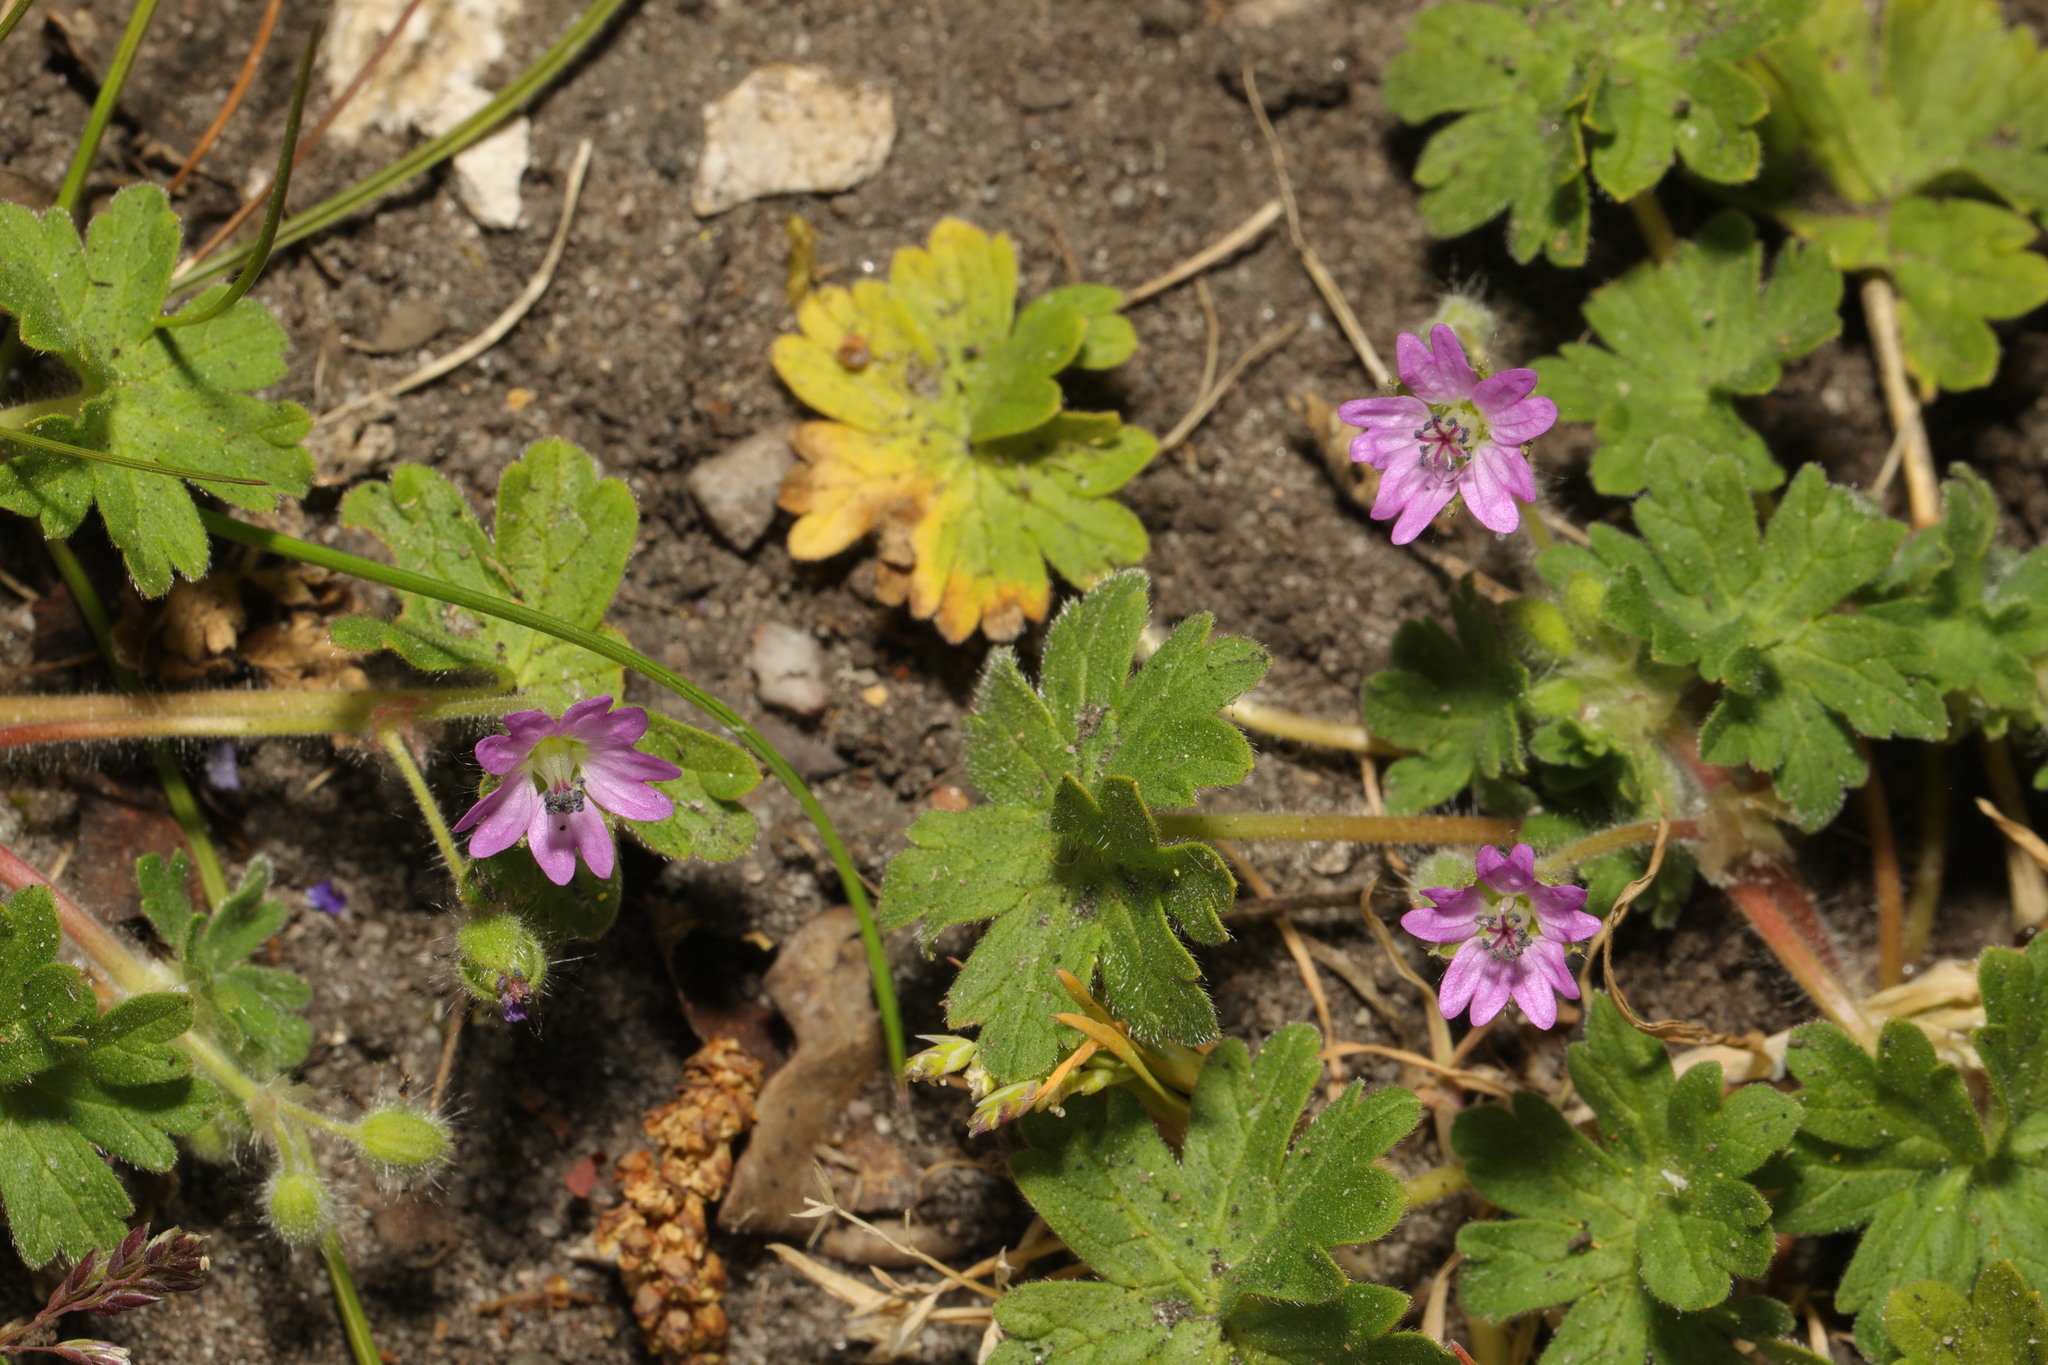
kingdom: Plantae
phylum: Tracheophyta
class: Magnoliopsida
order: Geraniales
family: Geraniaceae
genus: Geranium
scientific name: Geranium molle
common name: Dove's-foot crane's-bill
